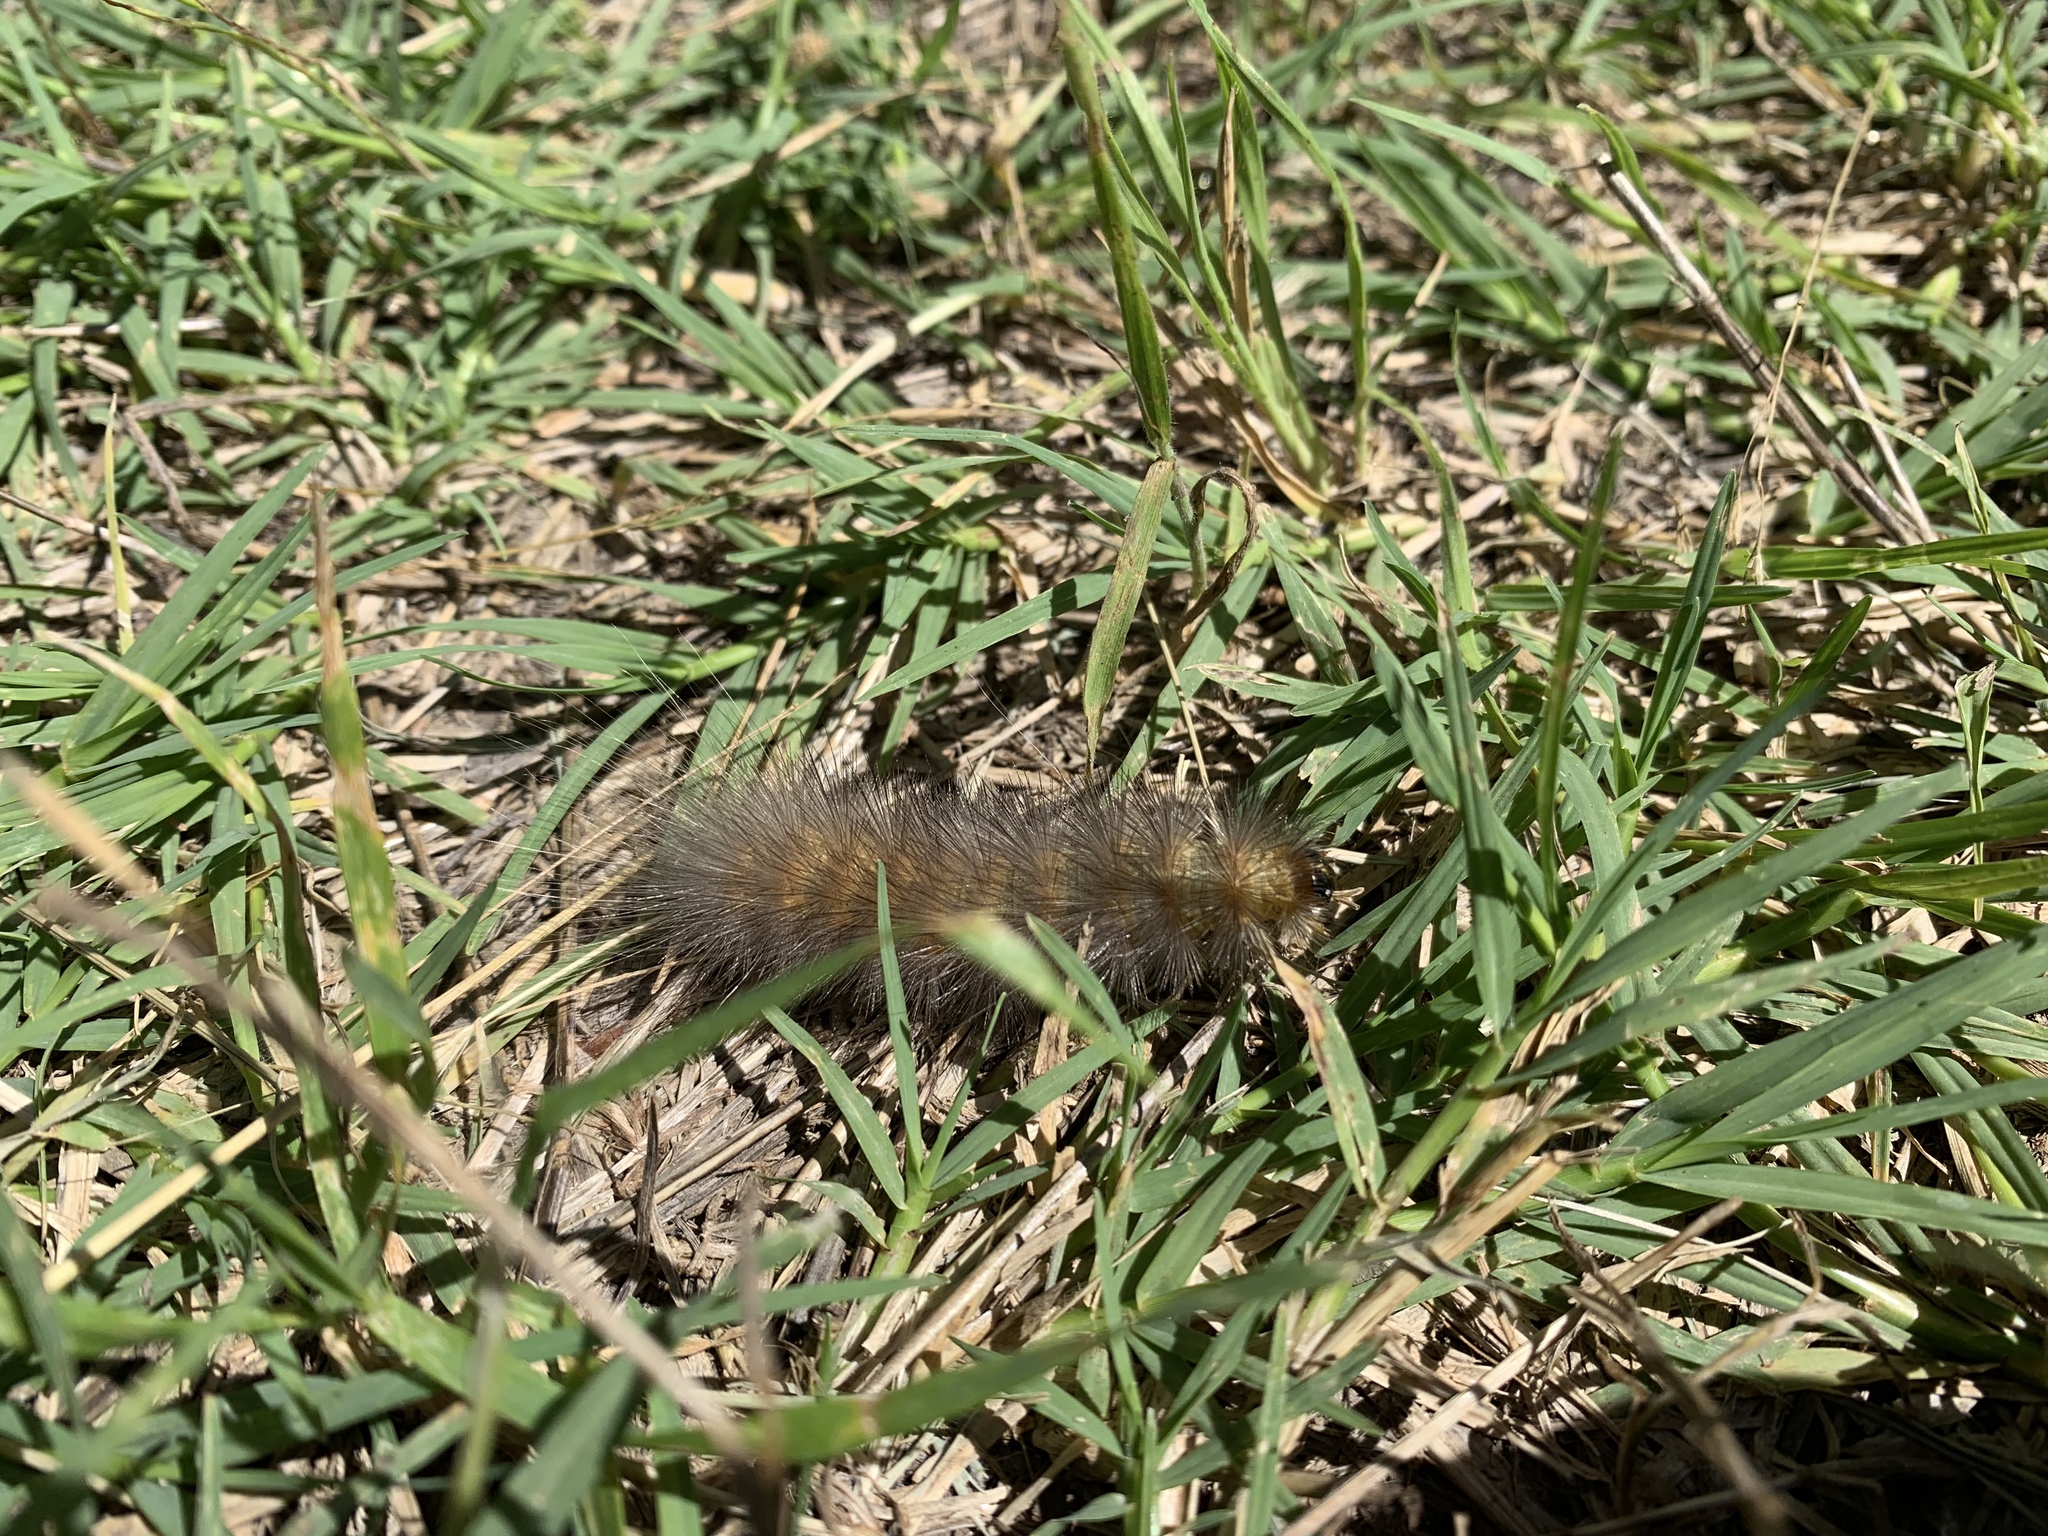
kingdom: Animalia
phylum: Arthropoda
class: Insecta
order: Lepidoptera
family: Erebidae
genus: Estigmene
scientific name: Estigmene acrea
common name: Salt marsh moth
